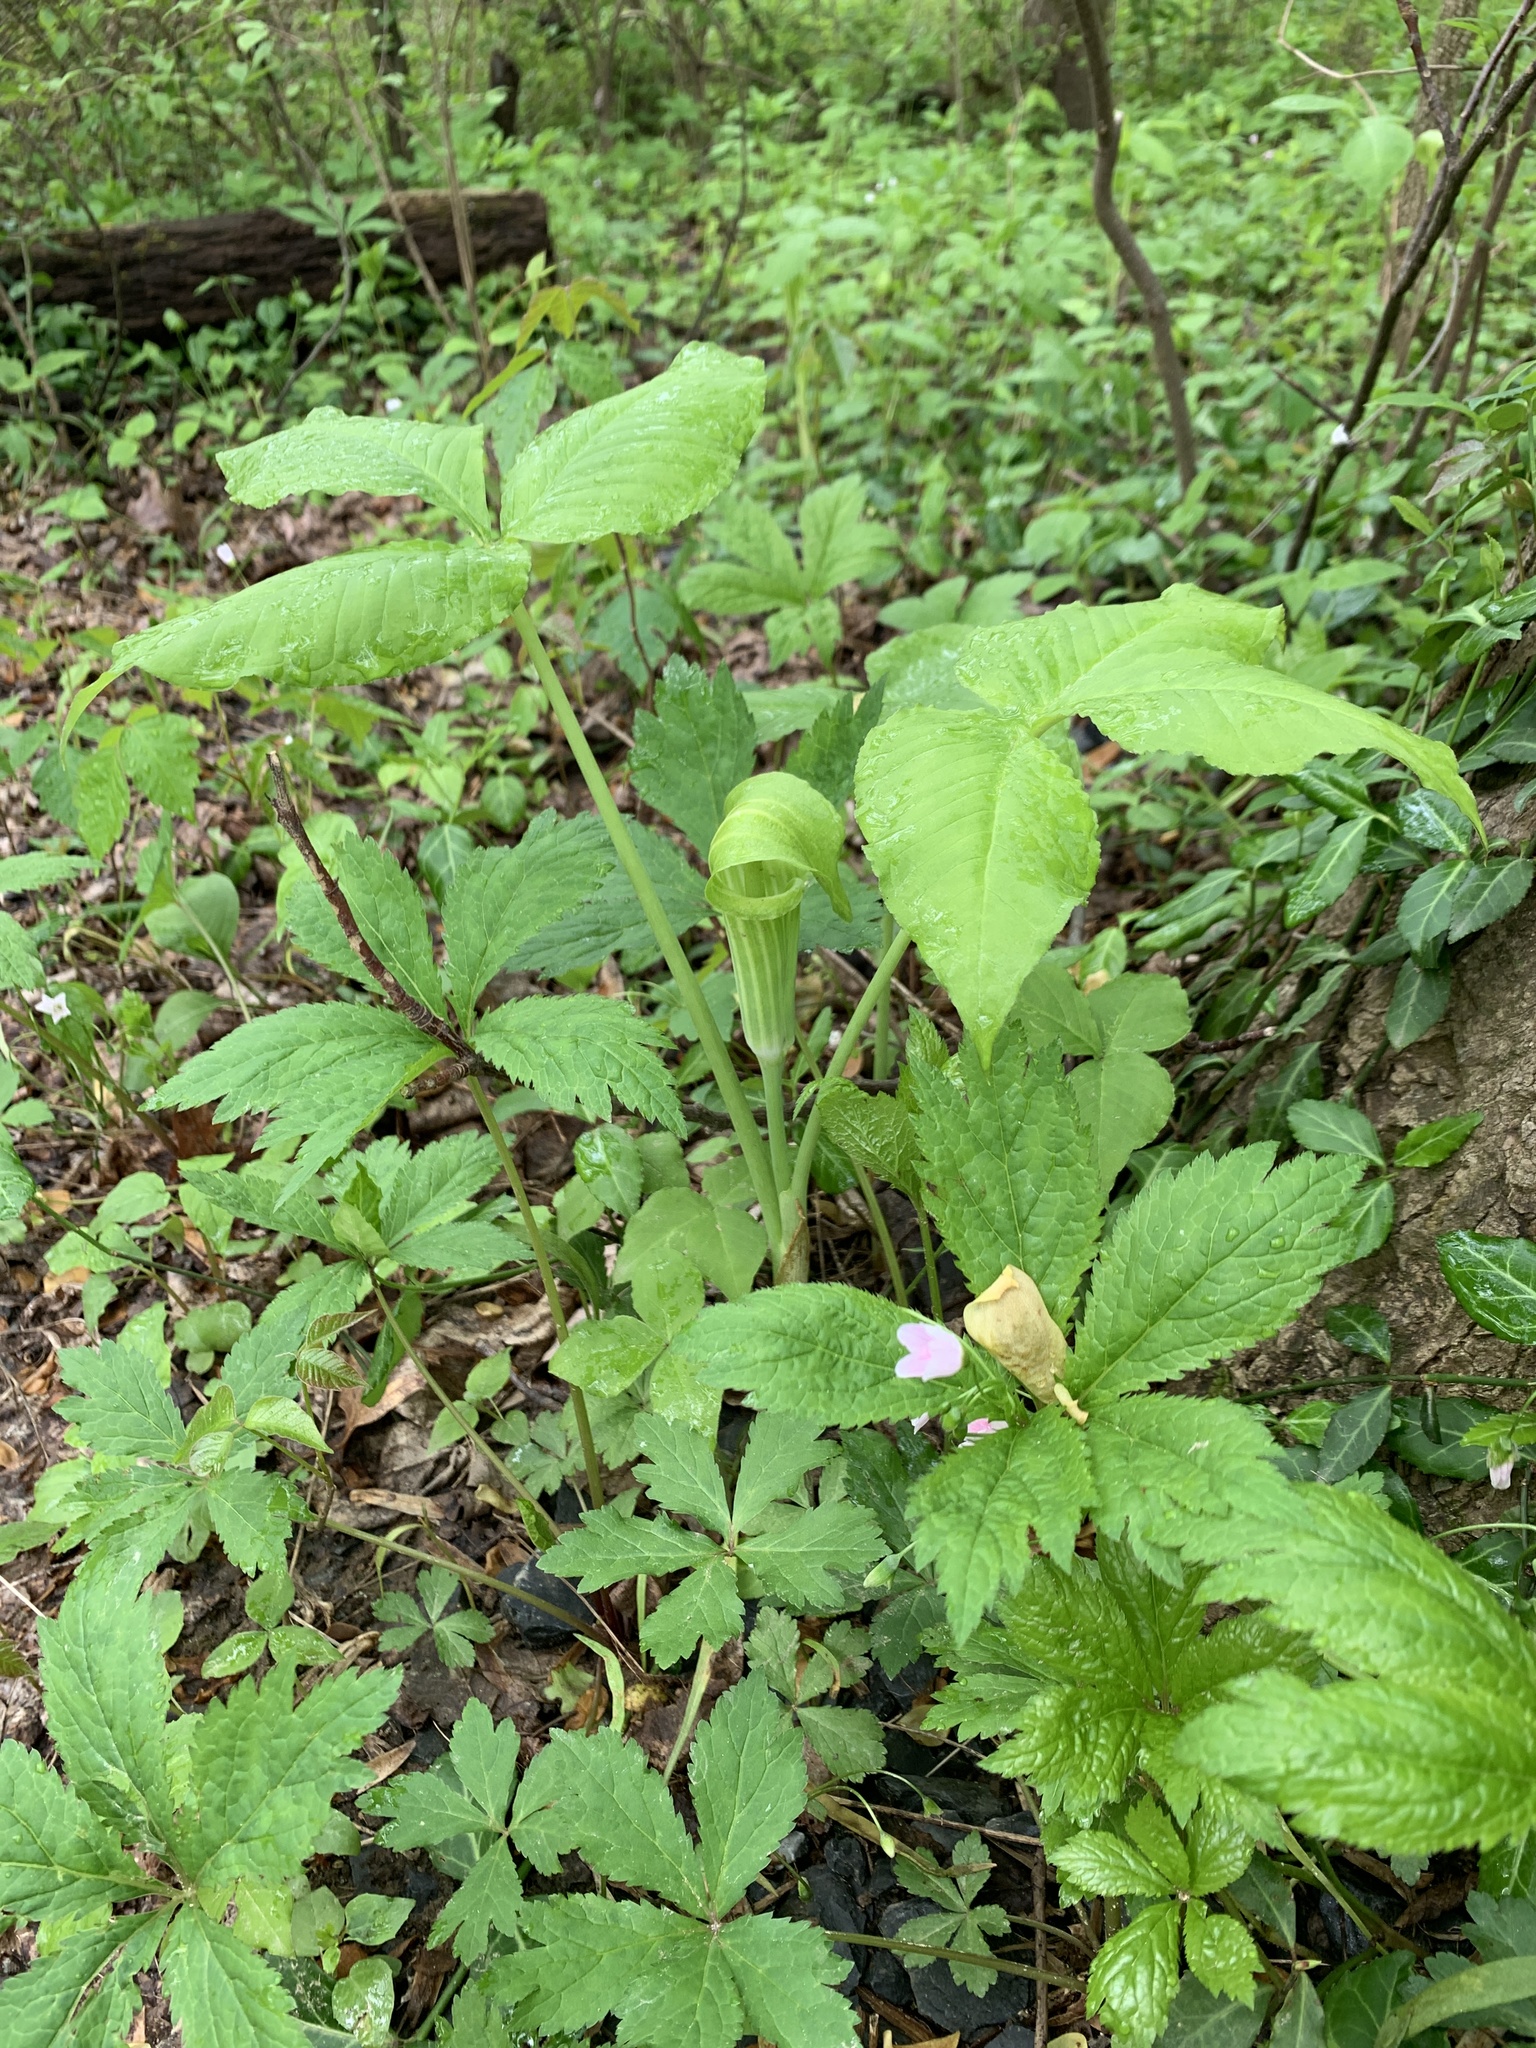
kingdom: Plantae
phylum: Tracheophyta
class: Liliopsida
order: Alismatales
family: Araceae
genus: Arisaema
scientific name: Arisaema triphyllum
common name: Jack-in-the-pulpit
